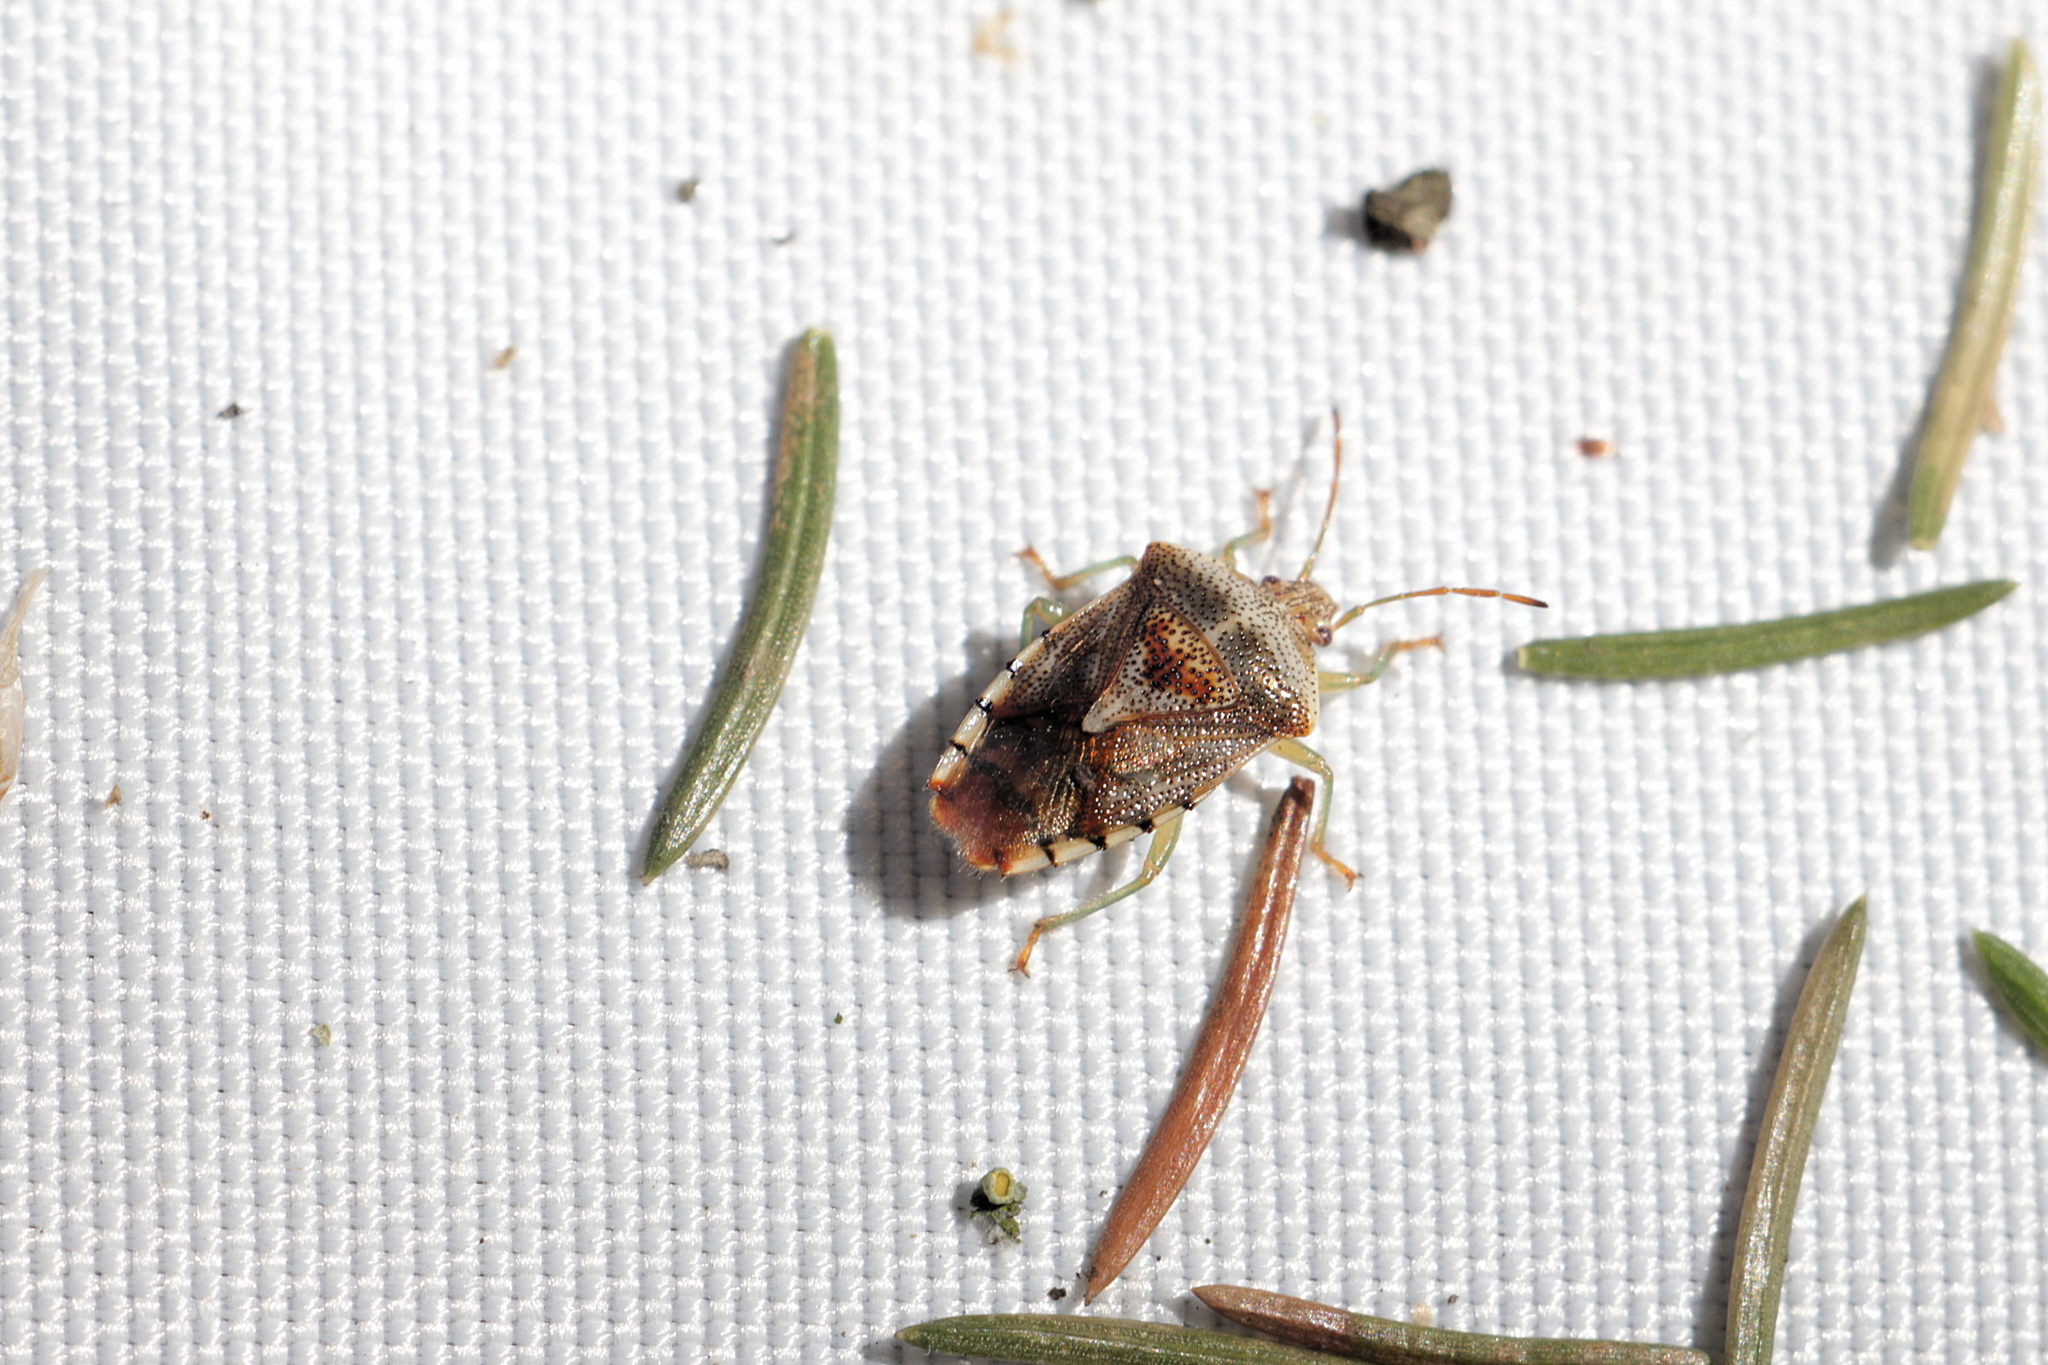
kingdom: Animalia
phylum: Arthropoda
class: Insecta
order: Hemiptera
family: Acanthosomatidae
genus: Elasmucha
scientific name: Elasmucha grisea
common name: Parent bug
